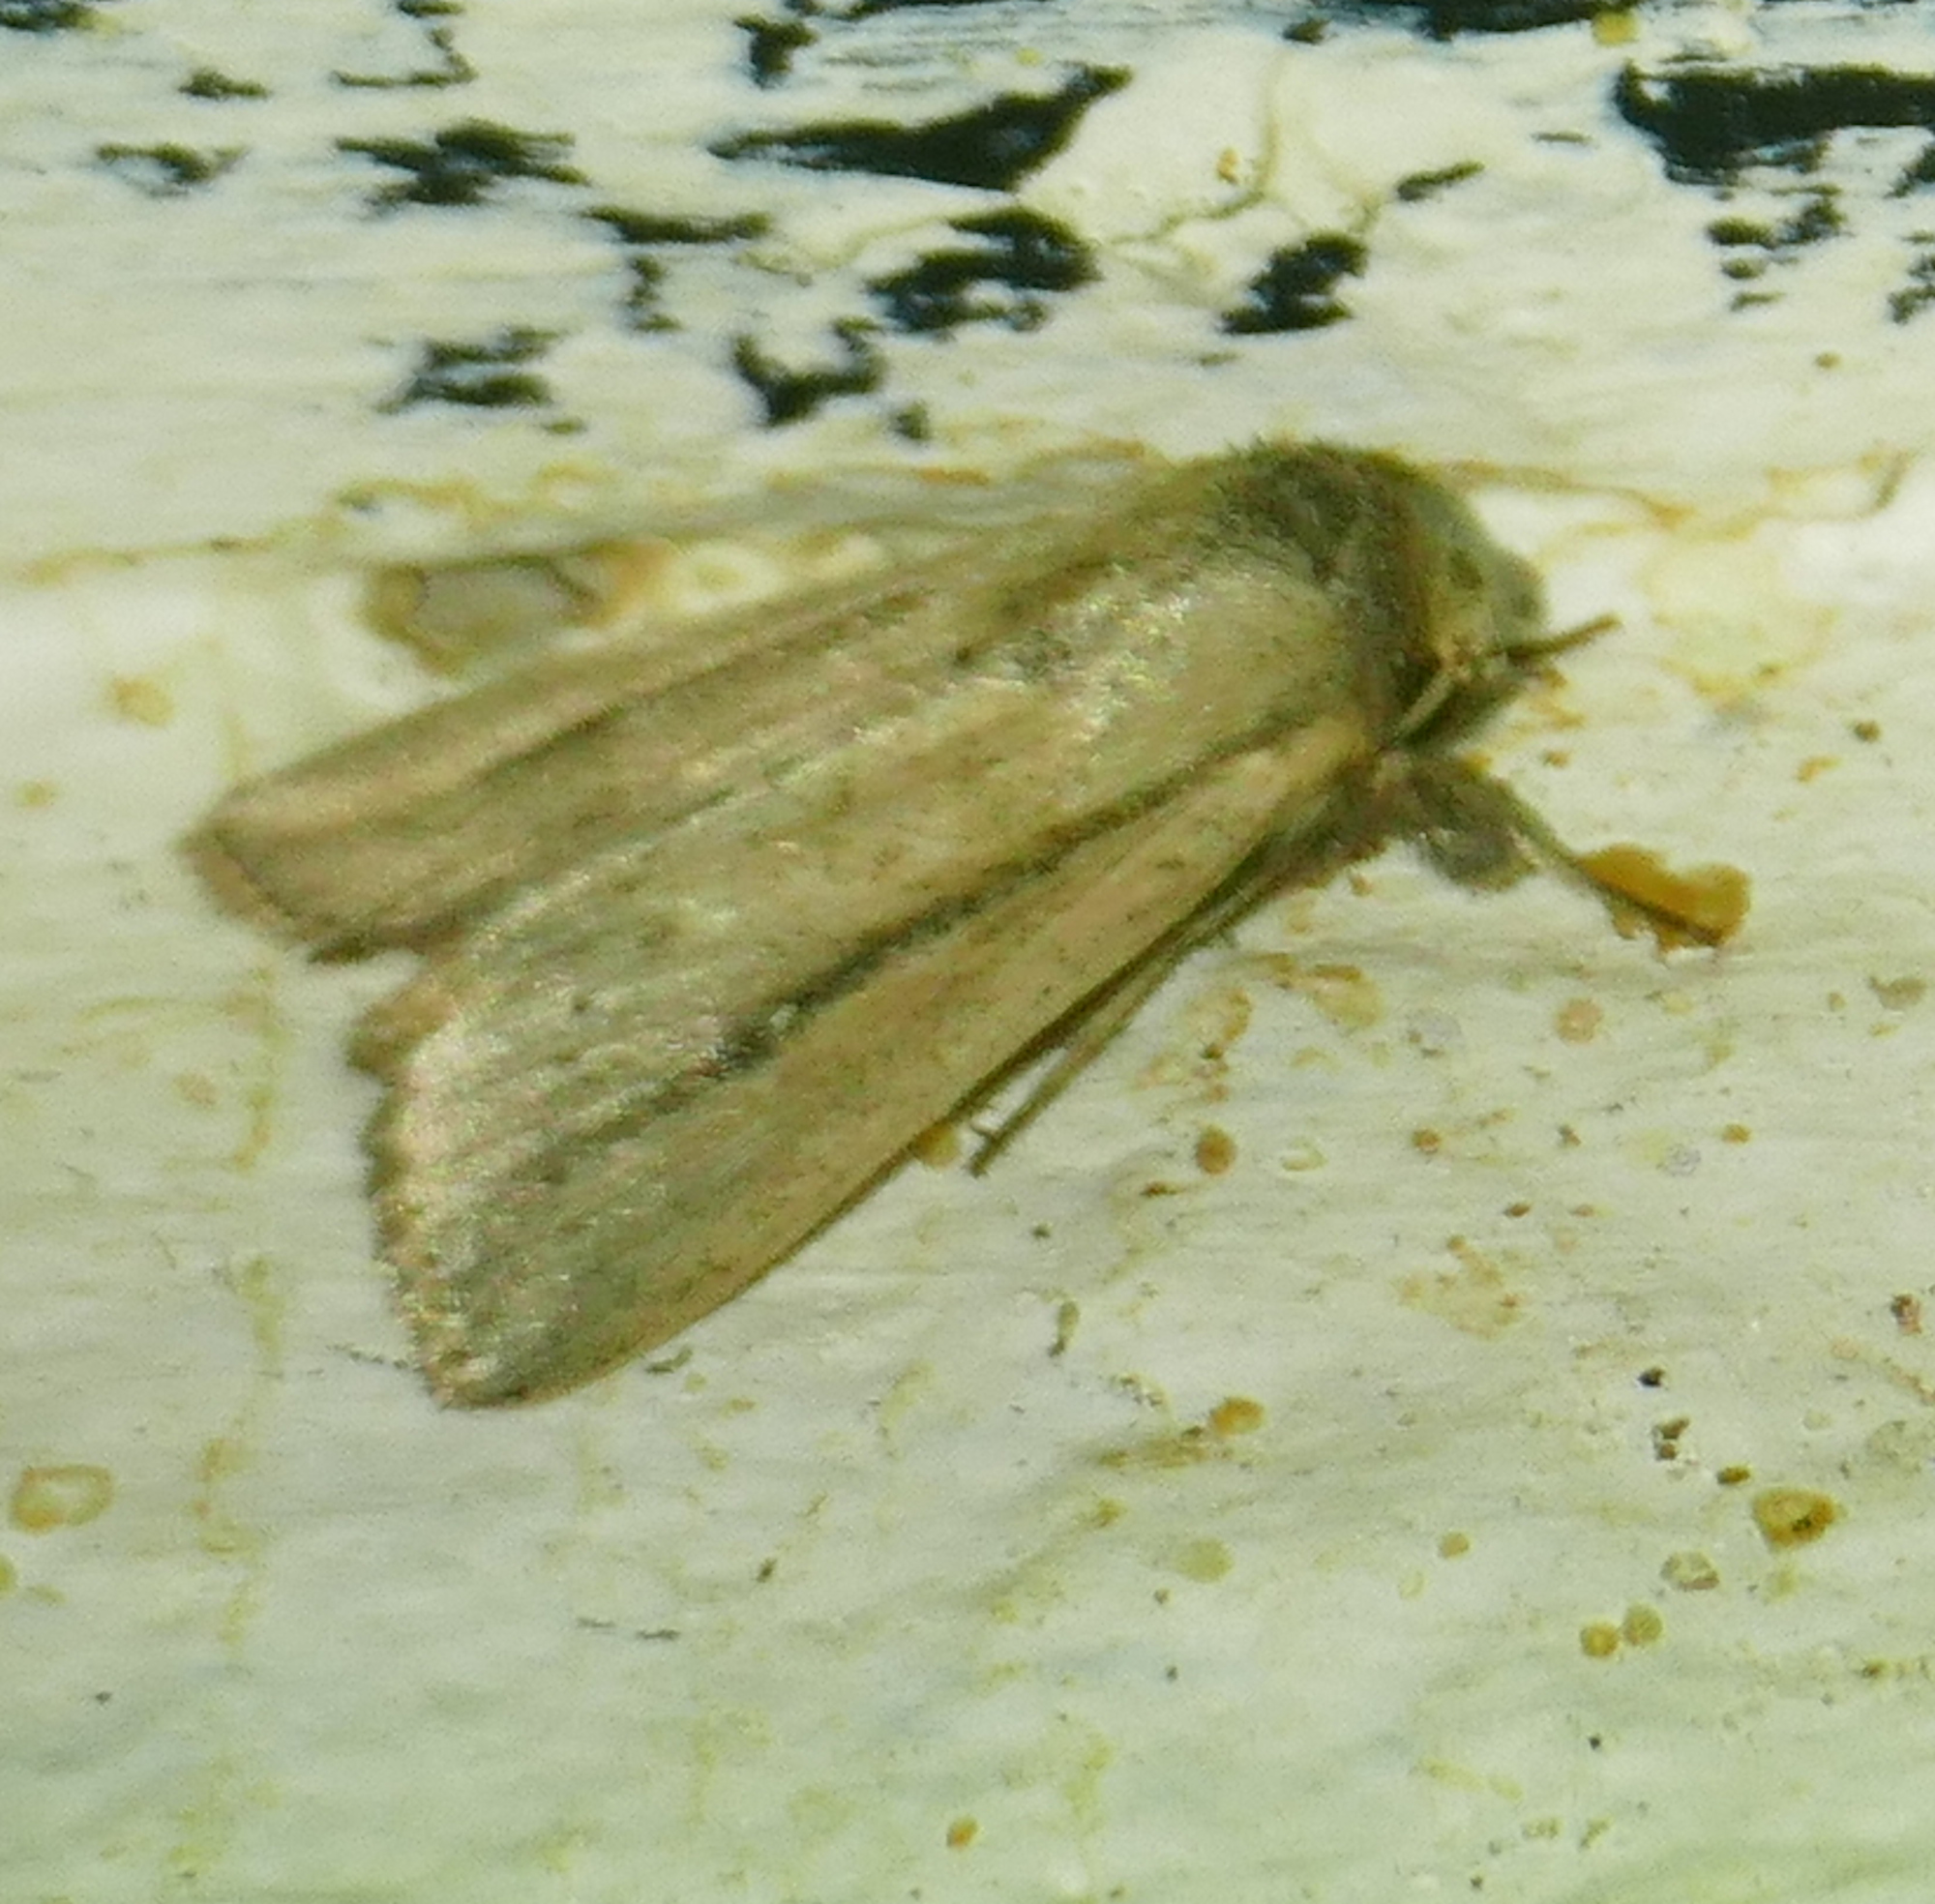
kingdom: Animalia
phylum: Arthropoda
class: Insecta
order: Lepidoptera
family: Noctuidae
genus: Leucania
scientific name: Leucania incognita
